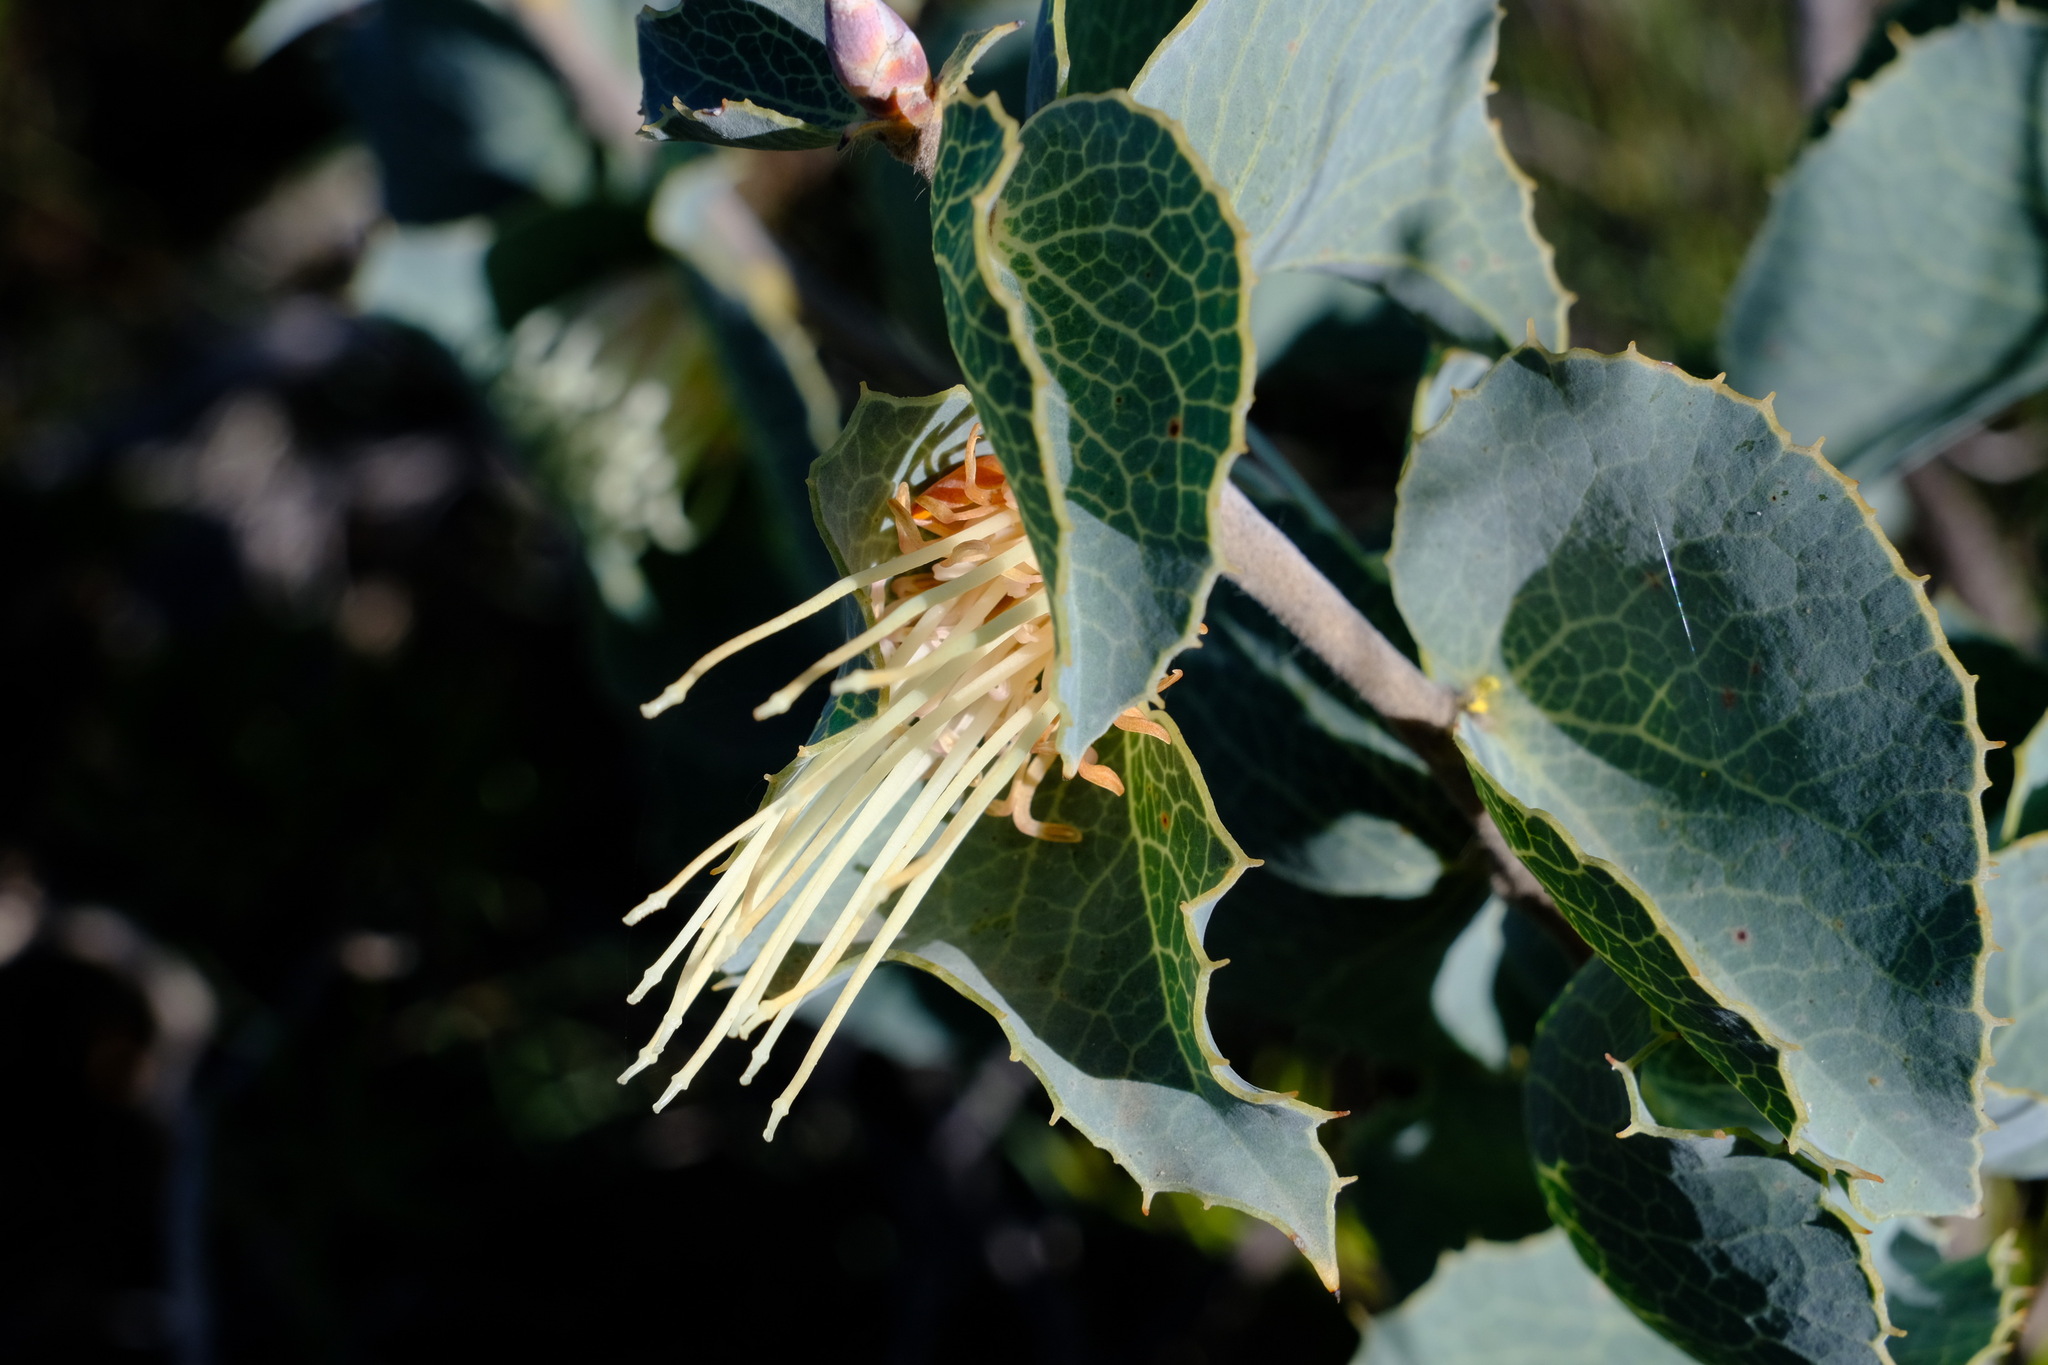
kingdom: Plantae
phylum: Tracheophyta
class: Magnoliopsida
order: Proteales
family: Proteaceae
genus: Hakea
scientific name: Hakea conchifolia
